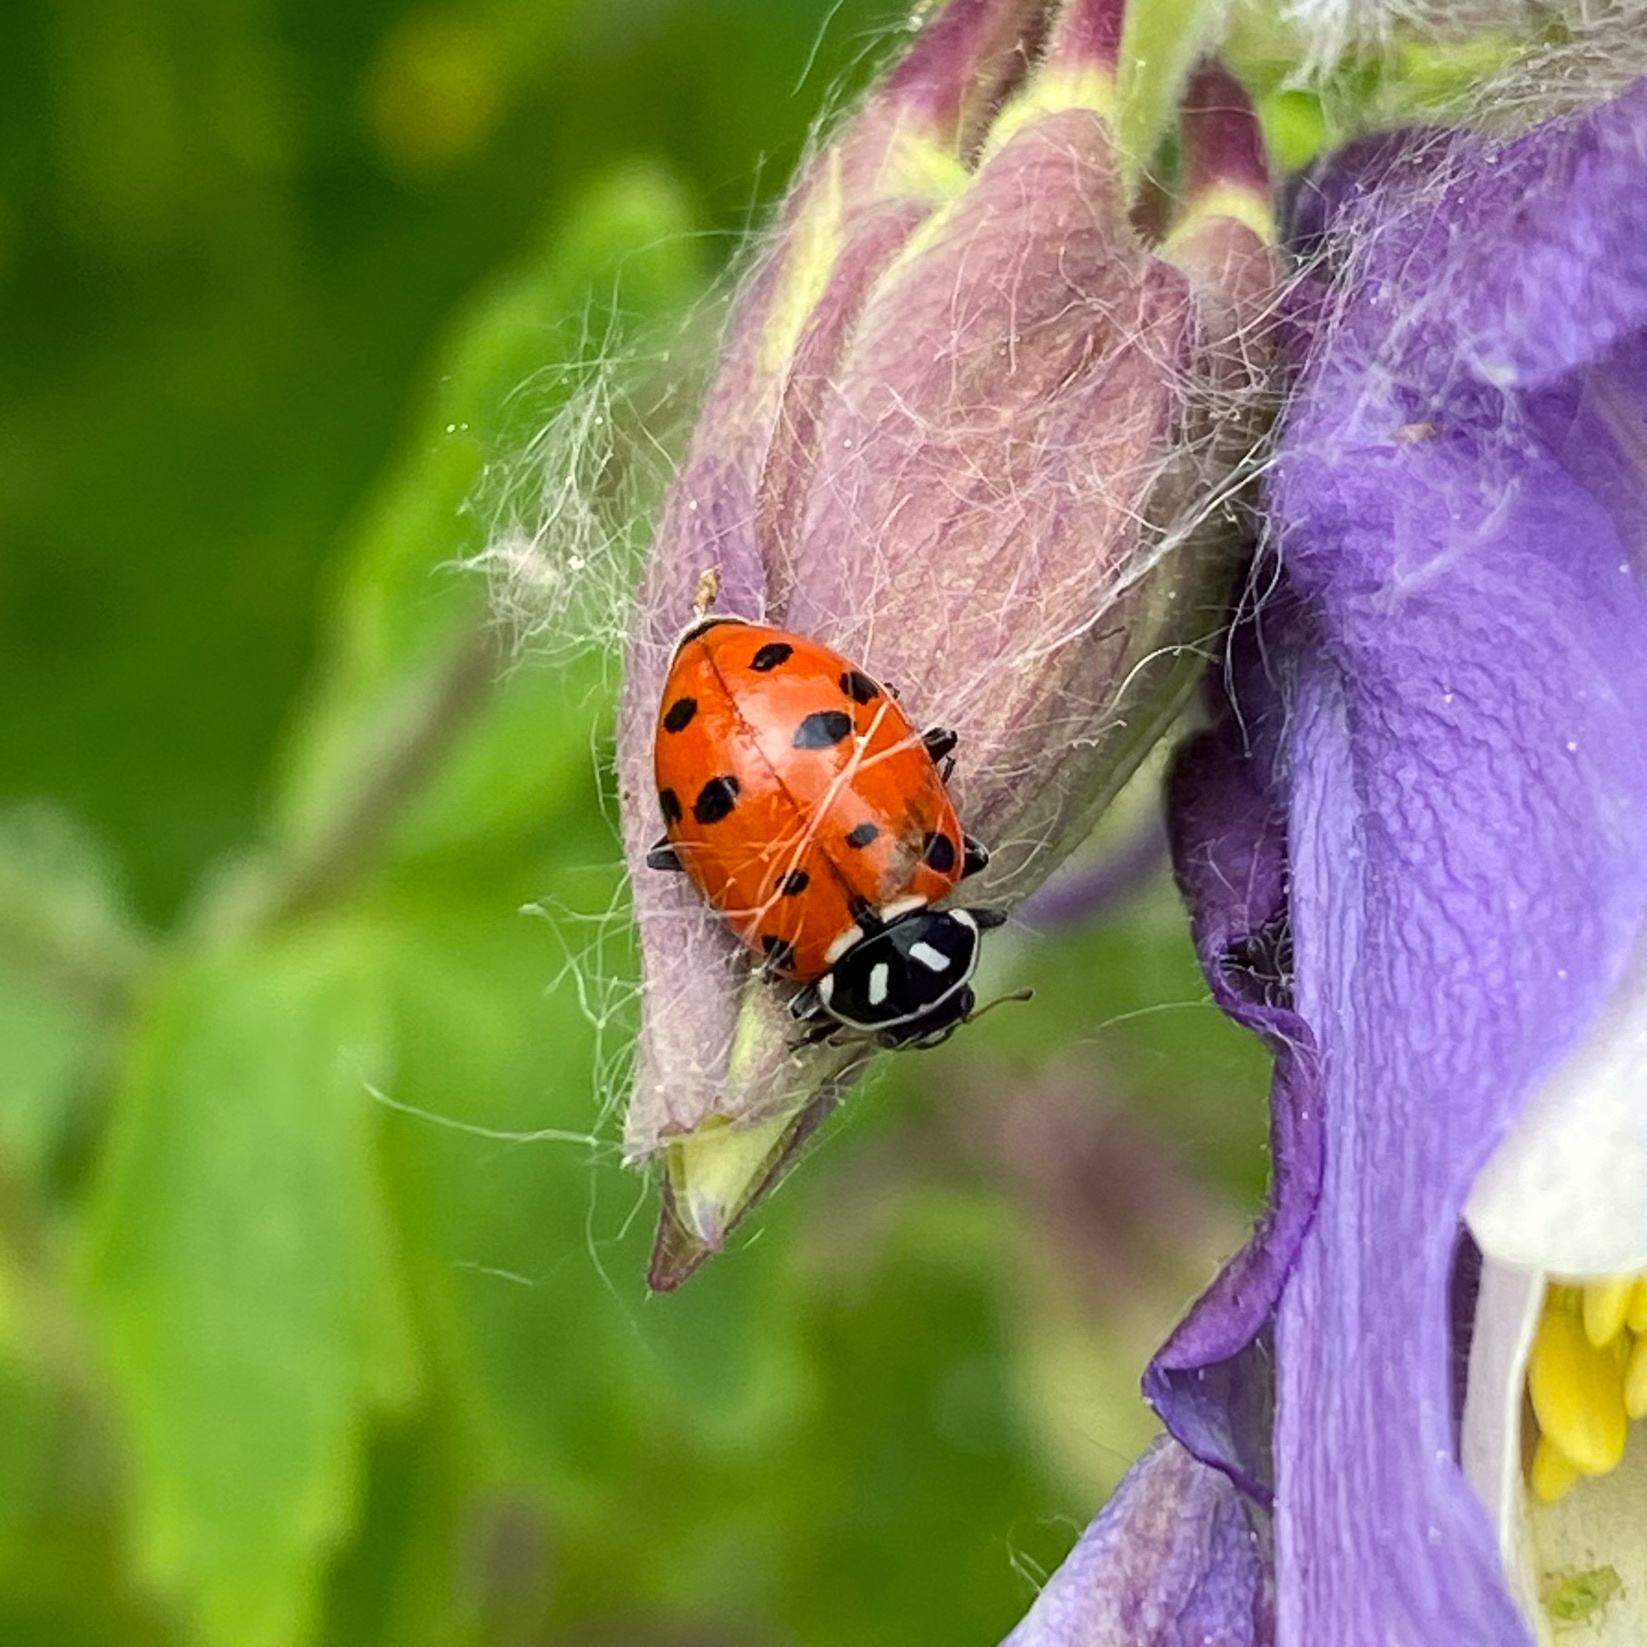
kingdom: Animalia
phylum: Arthropoda
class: Insecta
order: Coleoptera
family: Coccinellidae
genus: Hippodamia
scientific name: Hippodamia convergens
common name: Convergent lady beetle
